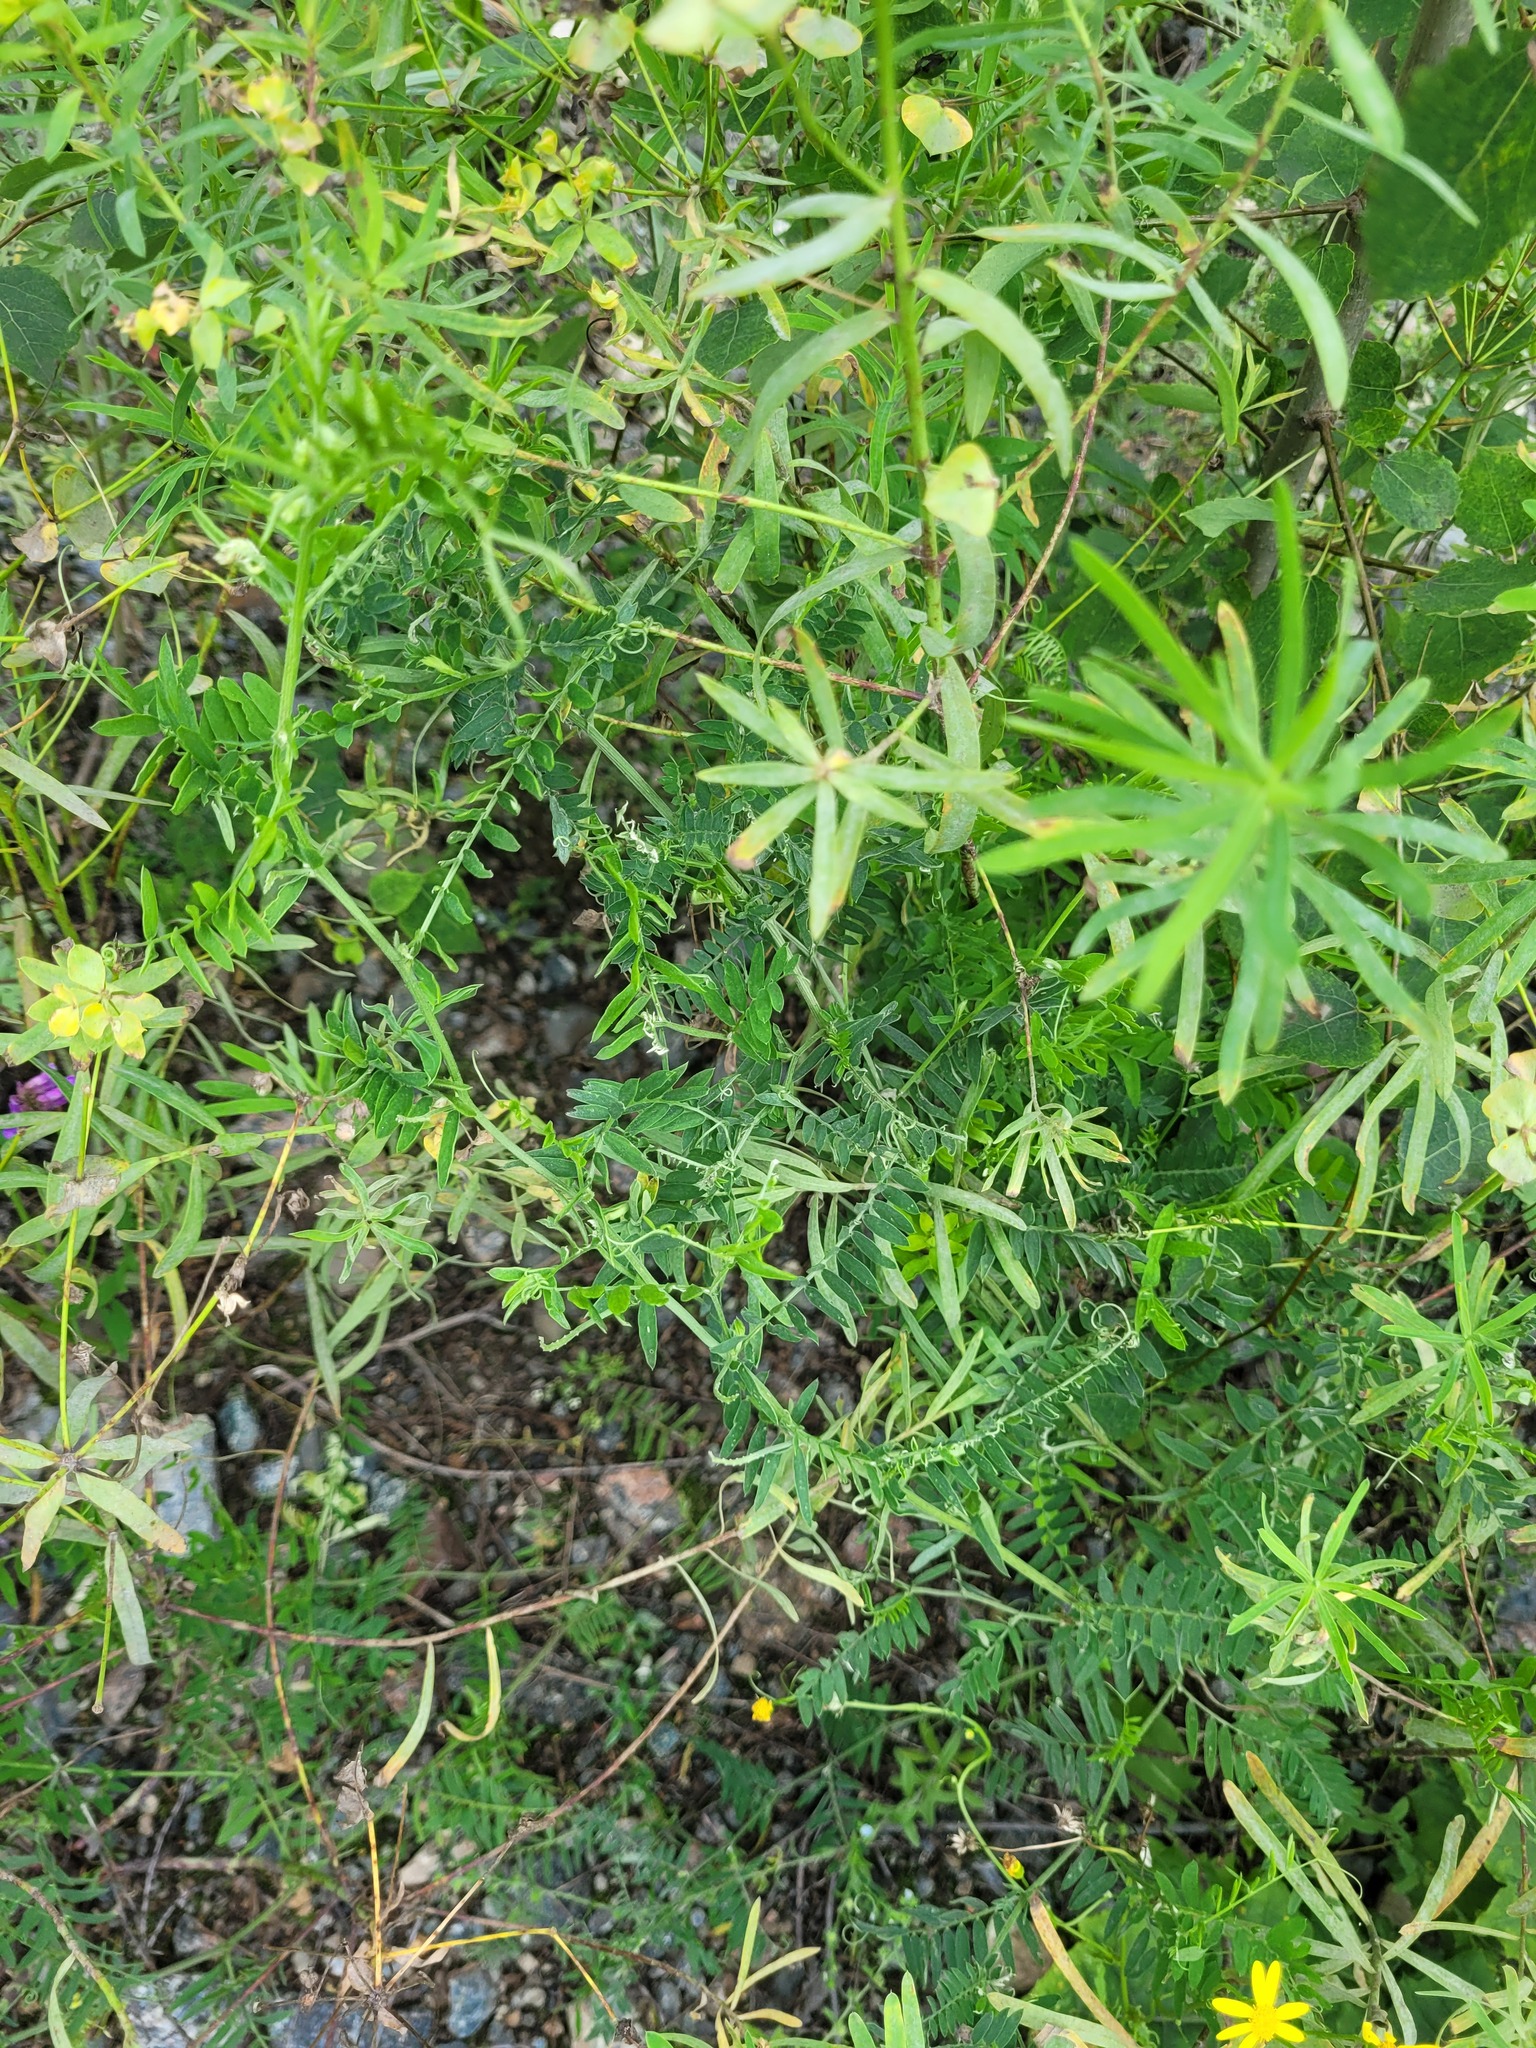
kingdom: Plantae
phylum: Tracheophyta
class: Magnoliopsida
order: Fabales
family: Fabaceae
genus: Vicia
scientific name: Vicia cracca
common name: Bird vetch
